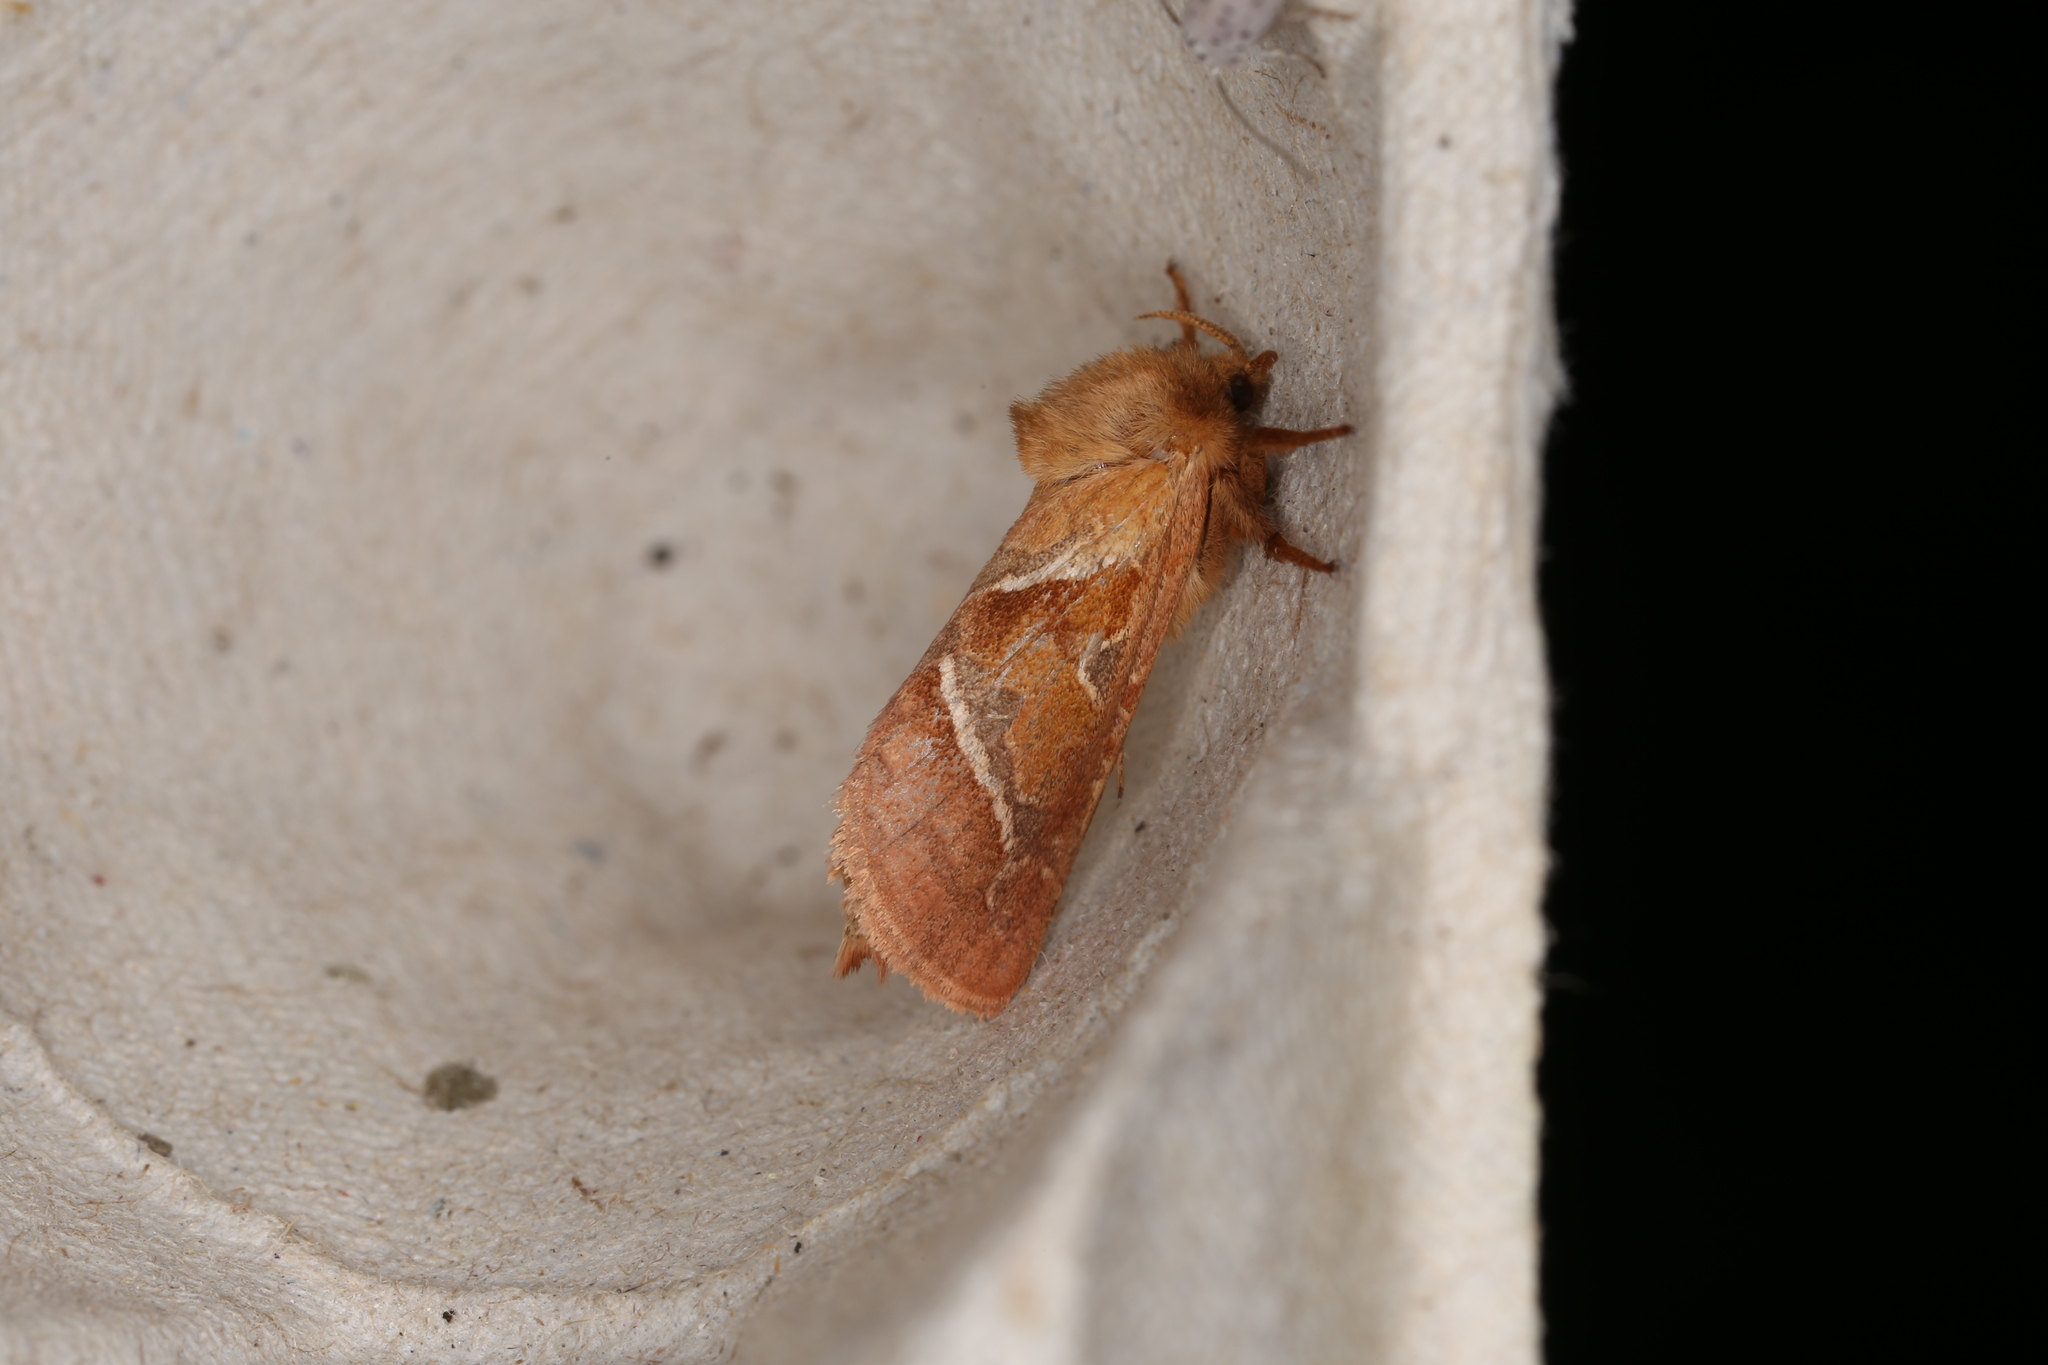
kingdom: Animalia
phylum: Arthropoda
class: Insecta
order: Lepidoptera
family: Hepialidae
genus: Triodia
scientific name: Triodia sylvina
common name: Orange swift
